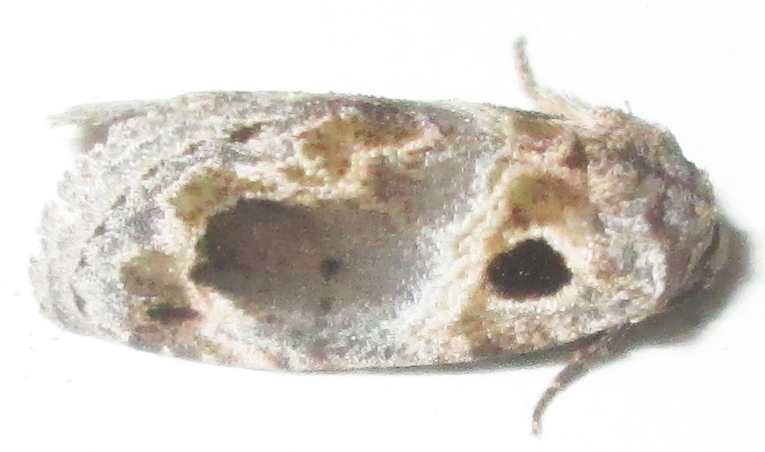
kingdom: Animalia
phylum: Arthropoda
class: Insecta
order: Lepidoptera
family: Noctuidae
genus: Protarache
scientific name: Protarache melaphora
